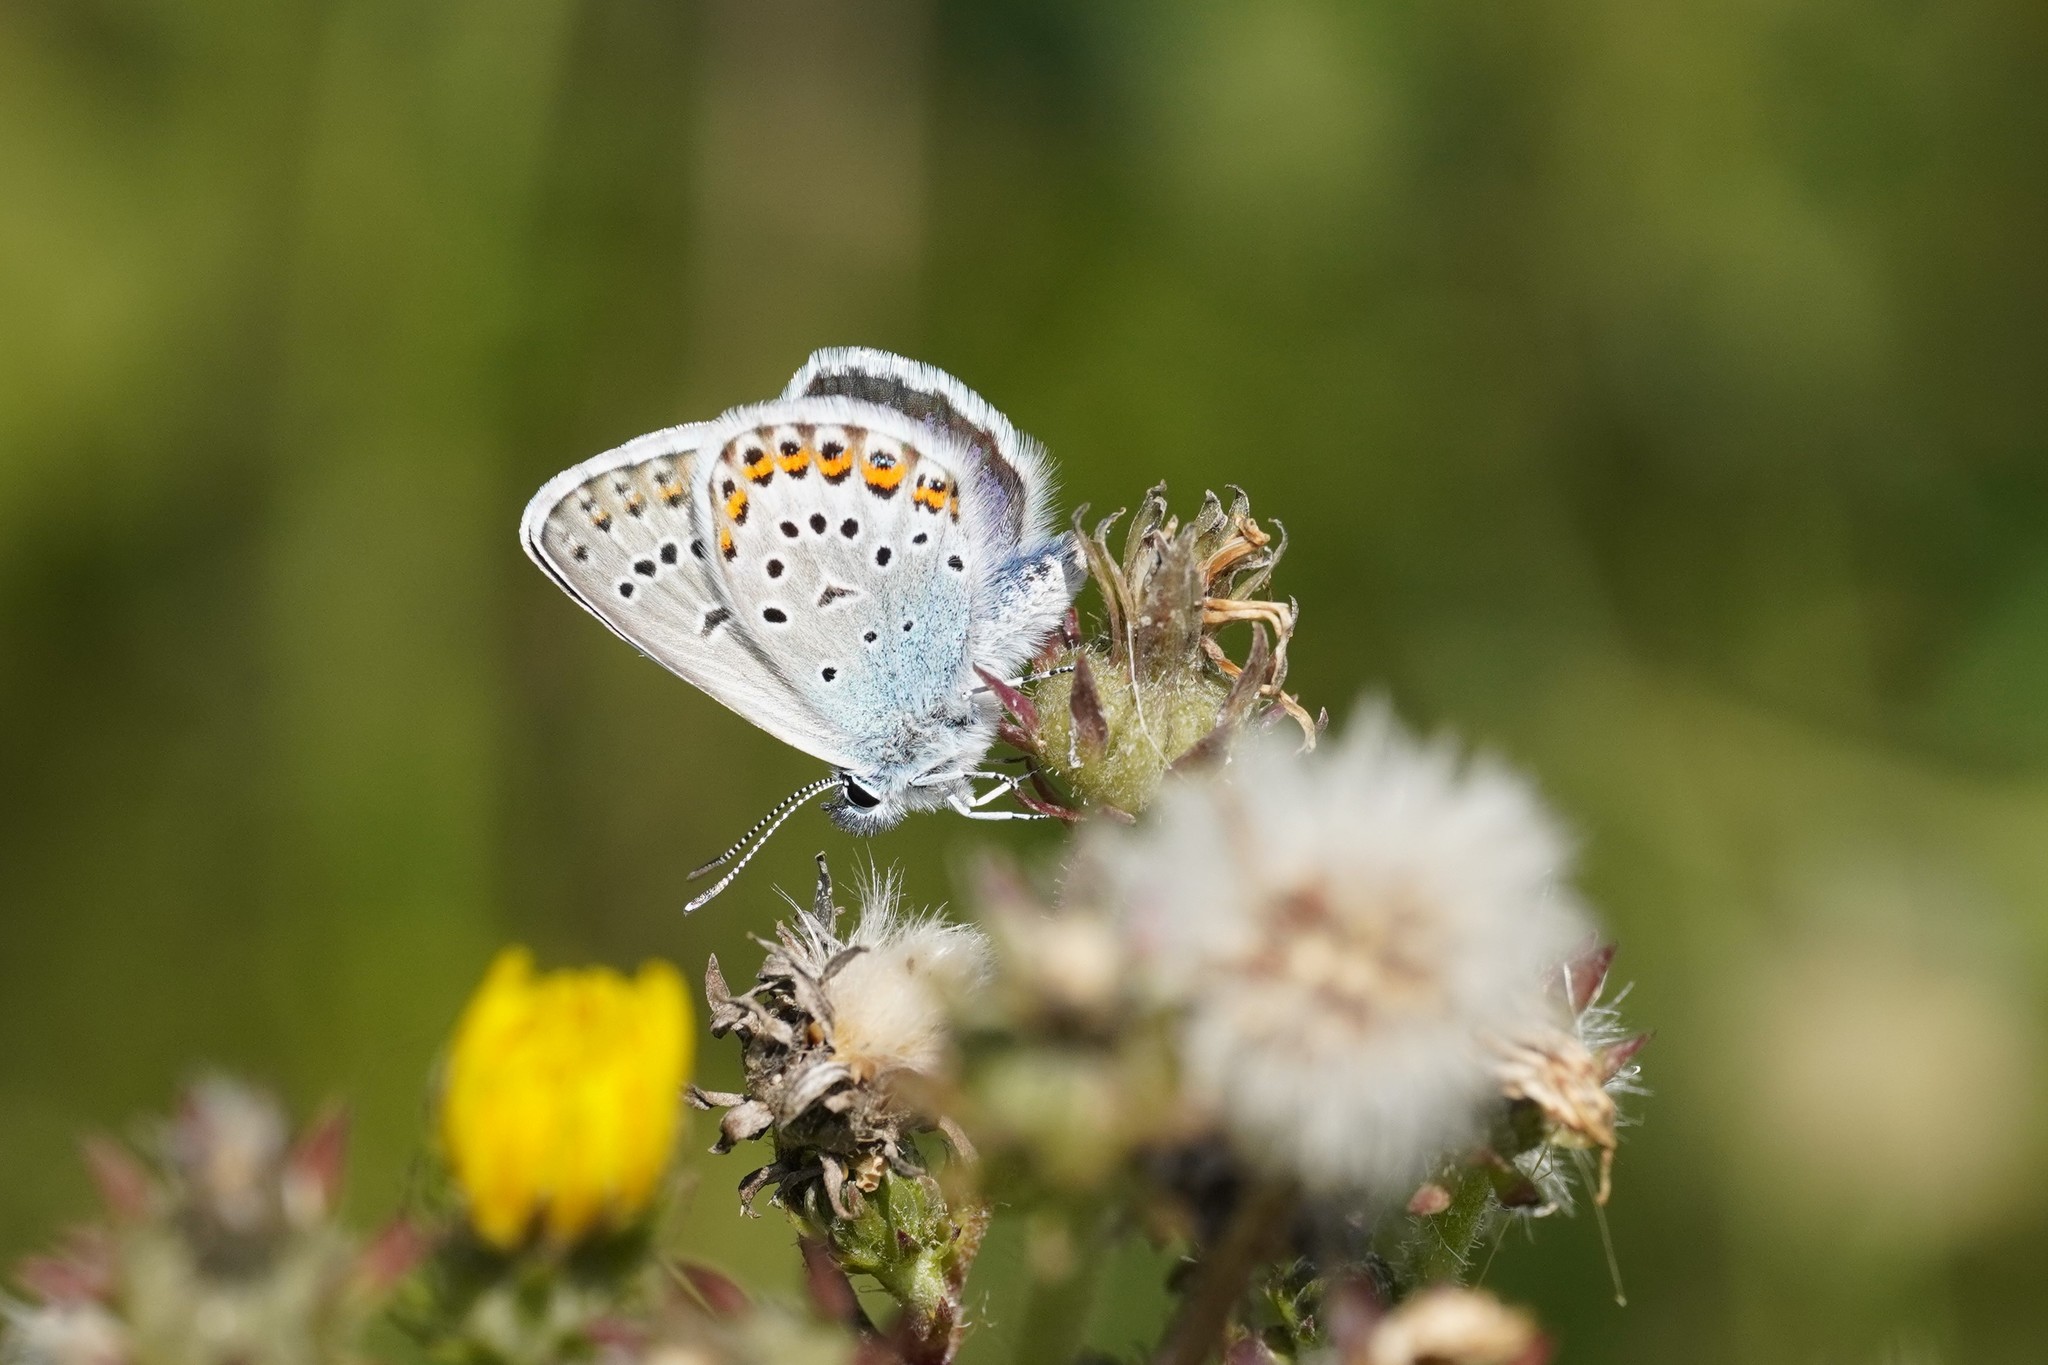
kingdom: Animalia
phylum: Arthropoda
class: Insecta
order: Lepidoptera
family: Lycaenidae
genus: Lycaeides
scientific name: Lycaeides idas
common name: Northern blue
